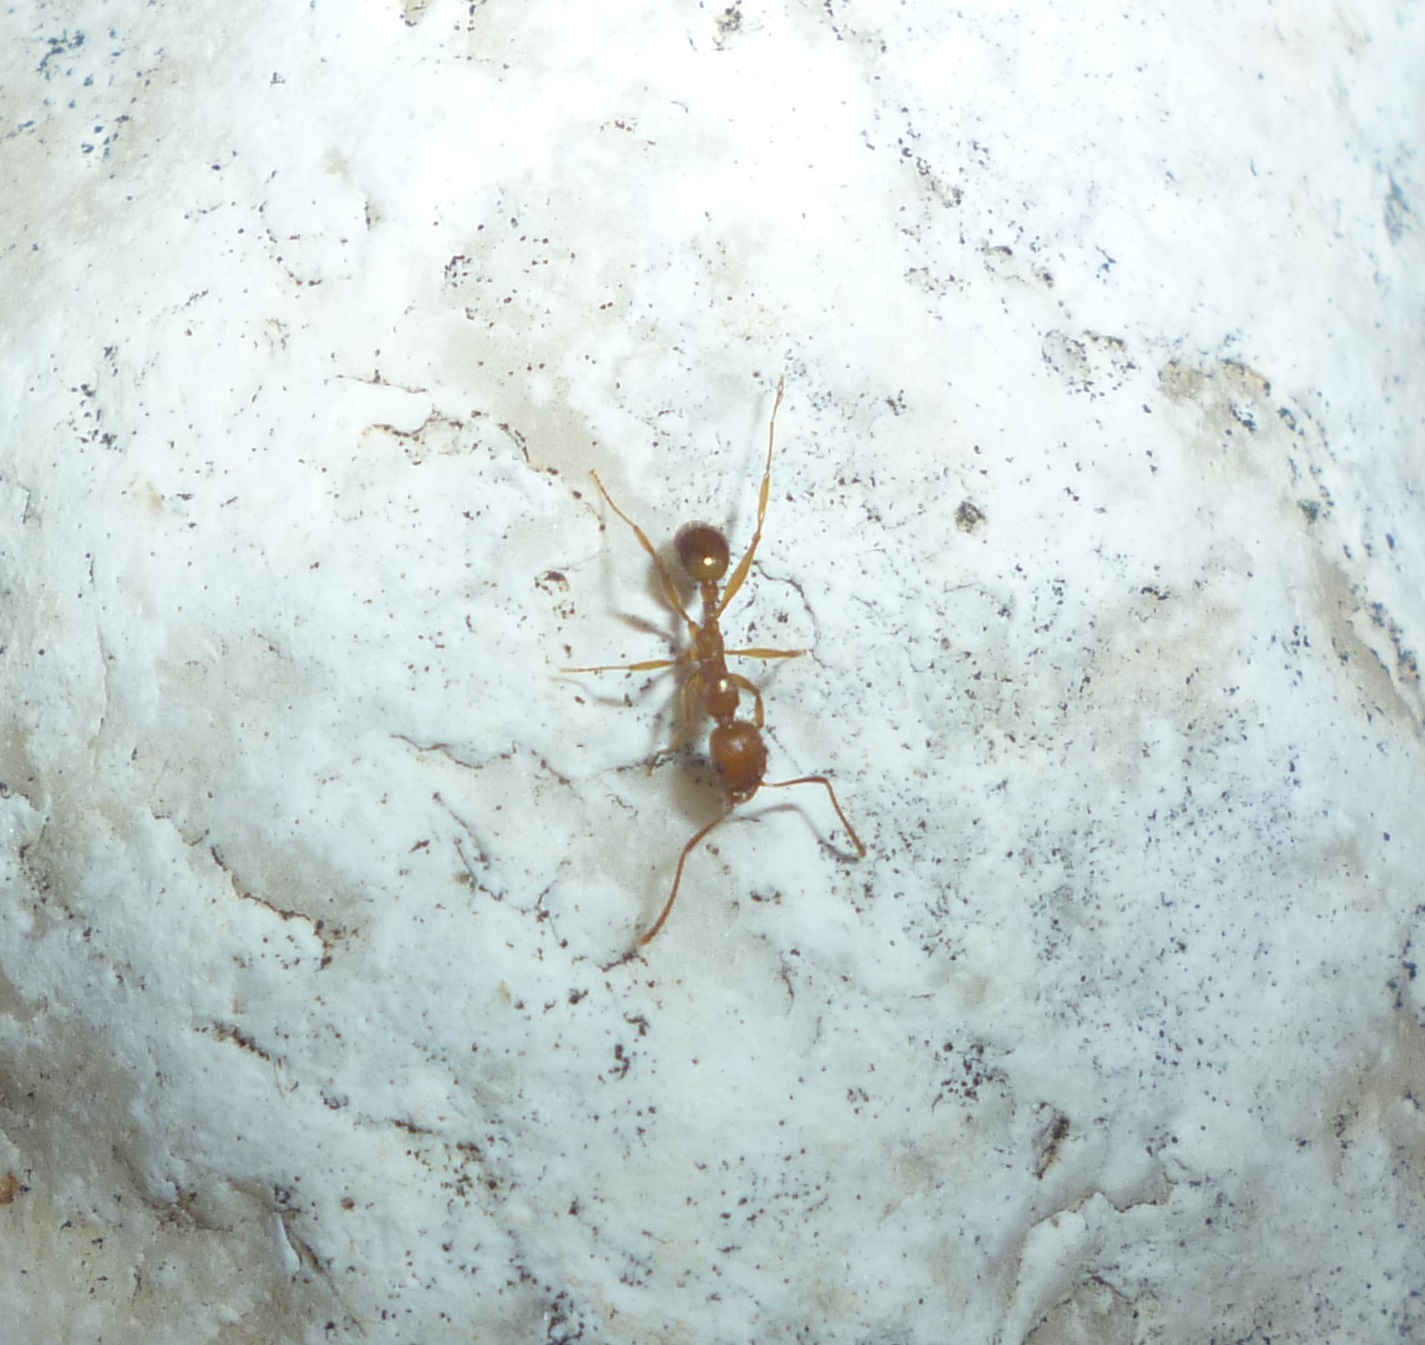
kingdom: Animalia
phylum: Arthropoda
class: Insecta
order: Hymenoptera
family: Formicidae
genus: Aphaenogaster
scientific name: Aphaenogaster kervillei
